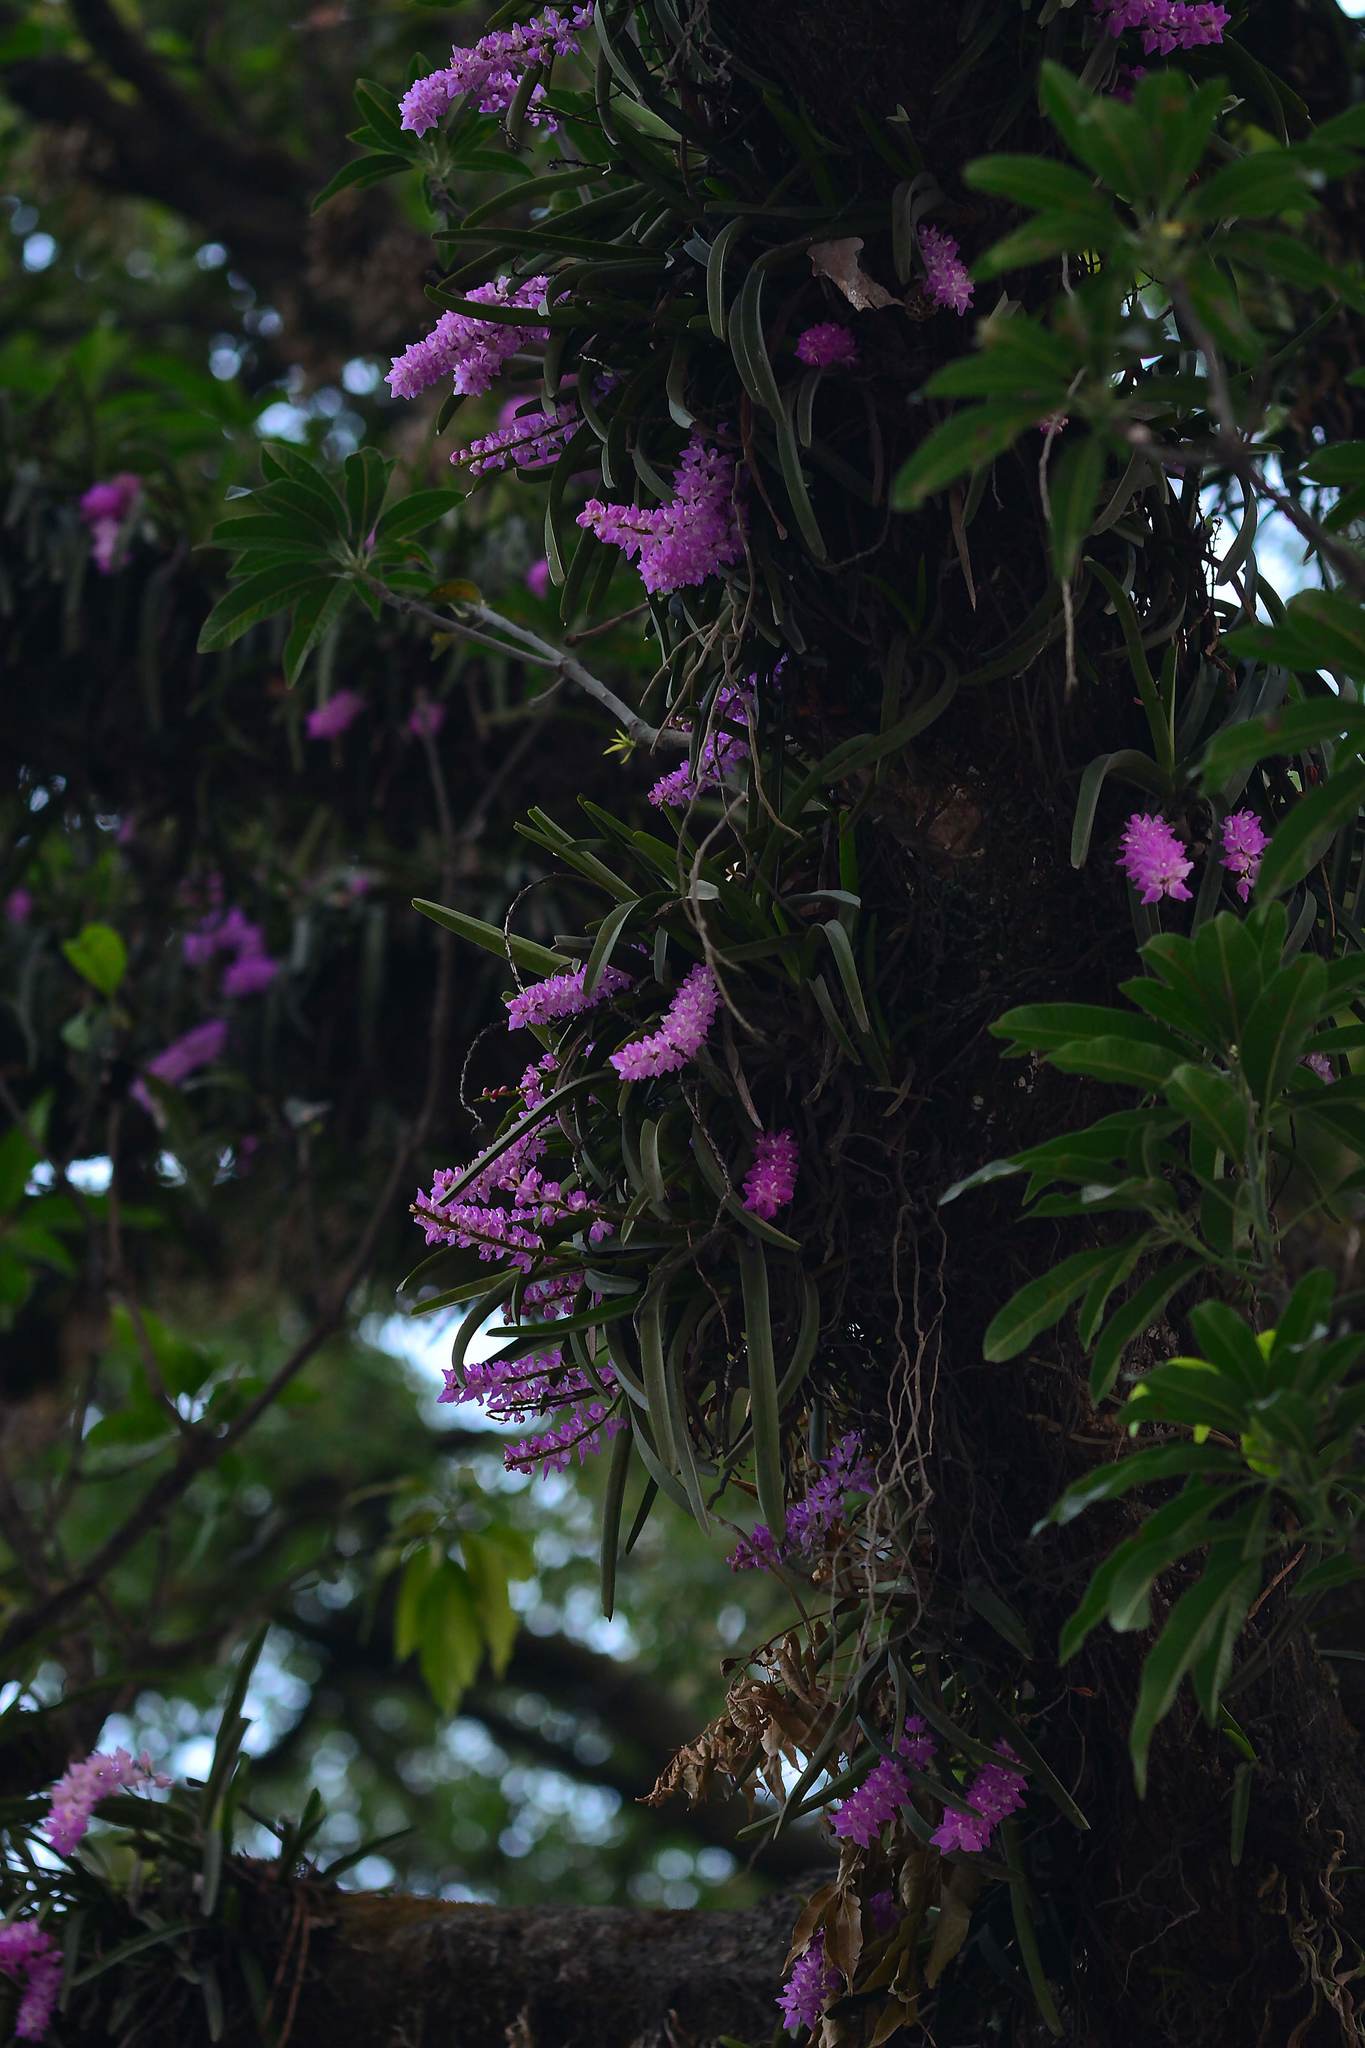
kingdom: Plantae
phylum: Tracheophyta
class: Liliopsida
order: Asparagales
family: Orchidaceae
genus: Aerides
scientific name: Aerides multiflora
